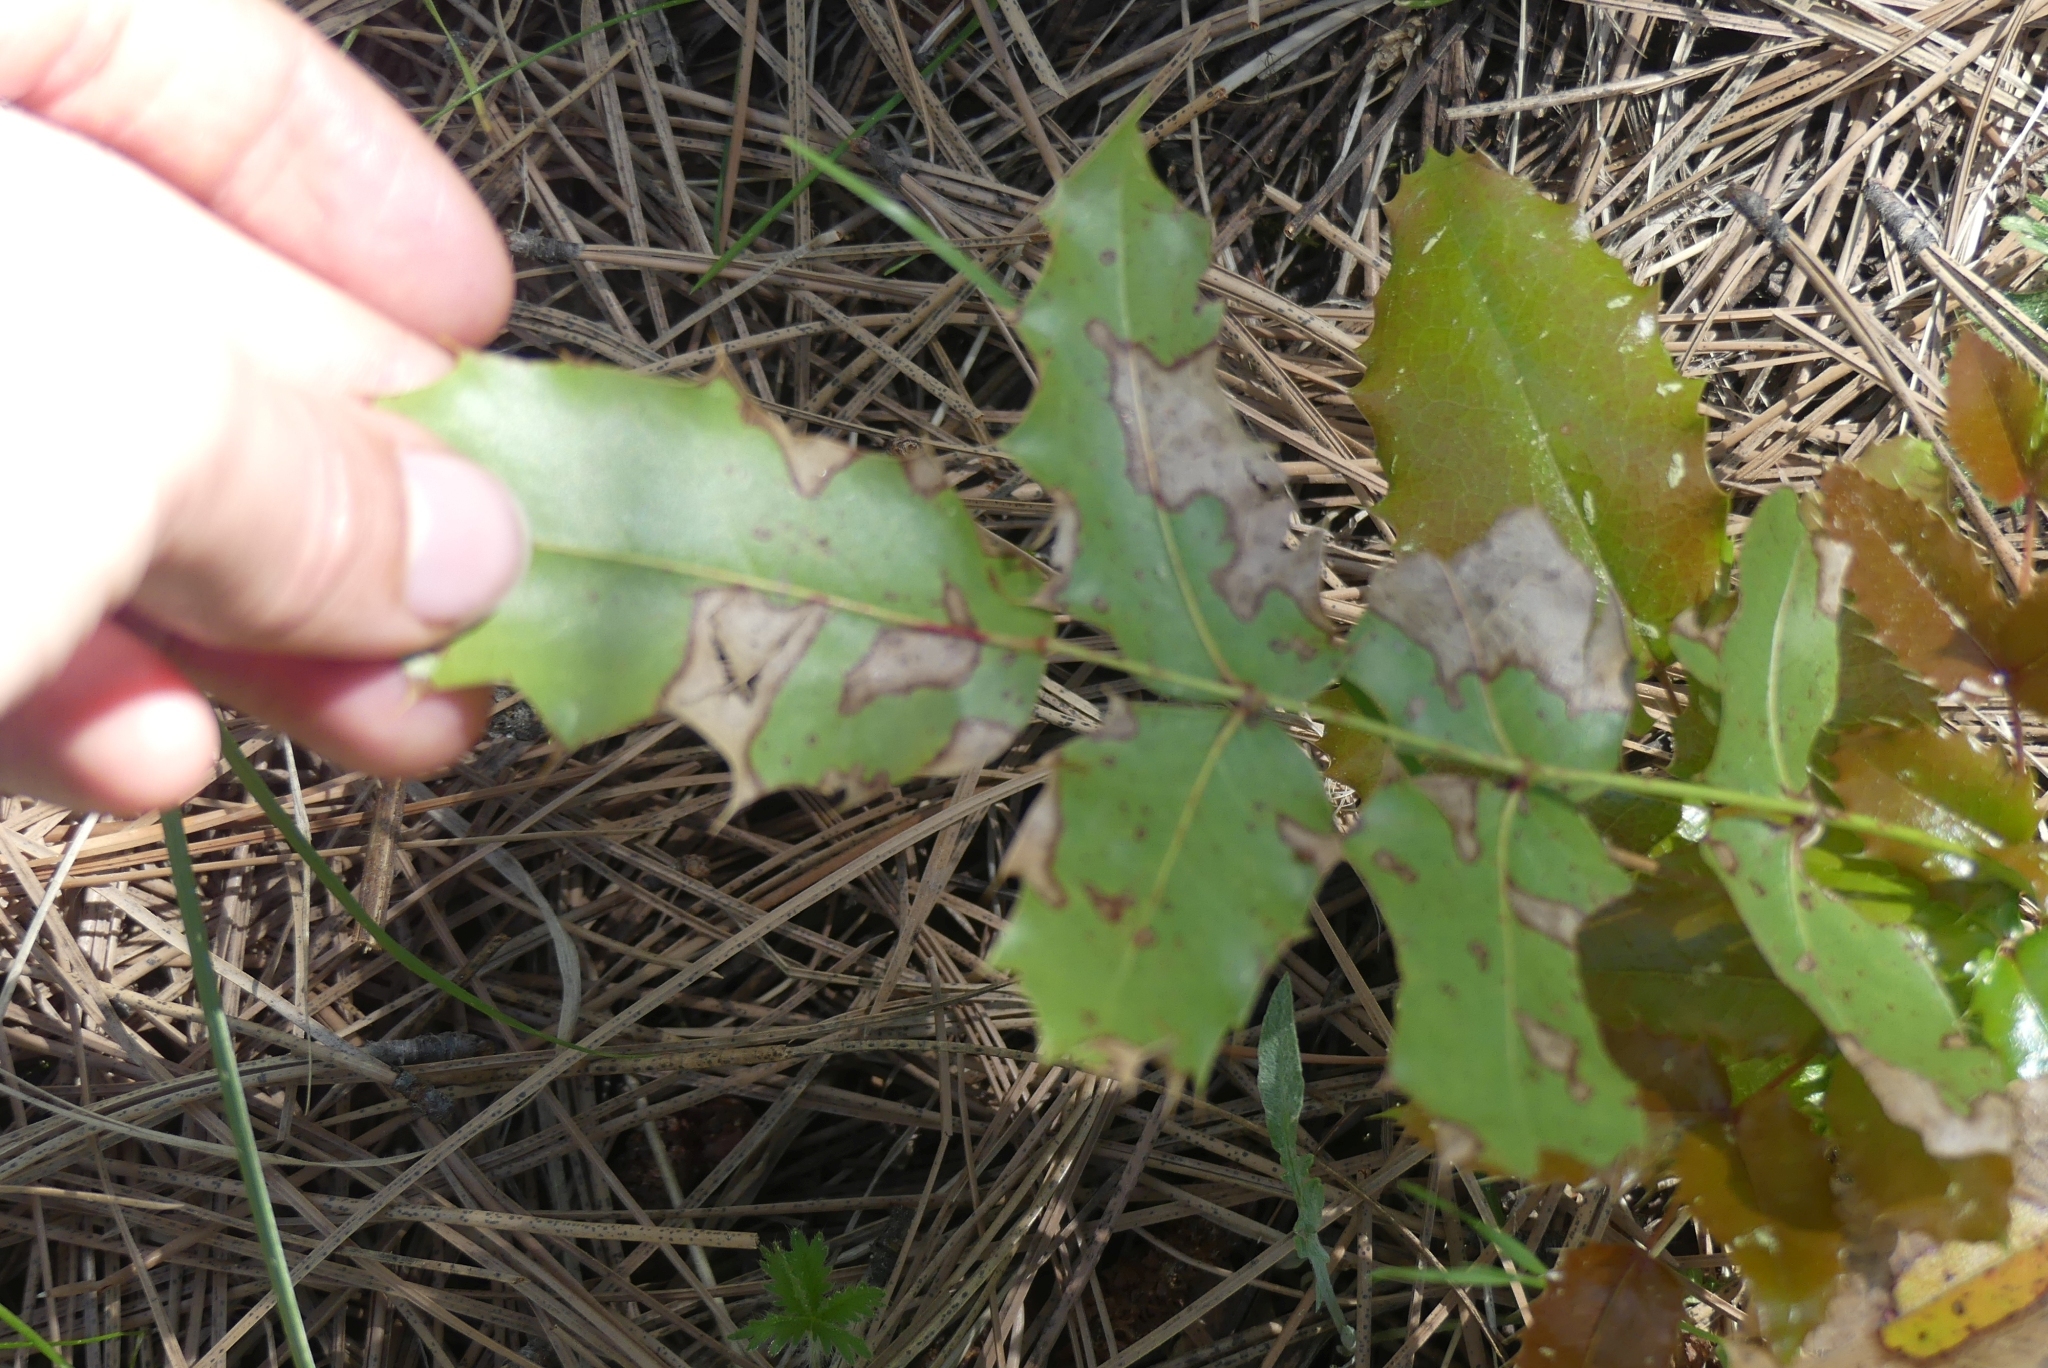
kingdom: Plantae
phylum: Tracheophyta
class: Magnoliopsida
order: Ranunculales
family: Berberidaceae
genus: Mahonia
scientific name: Mahonia aquifolium
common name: Oregon-grape
